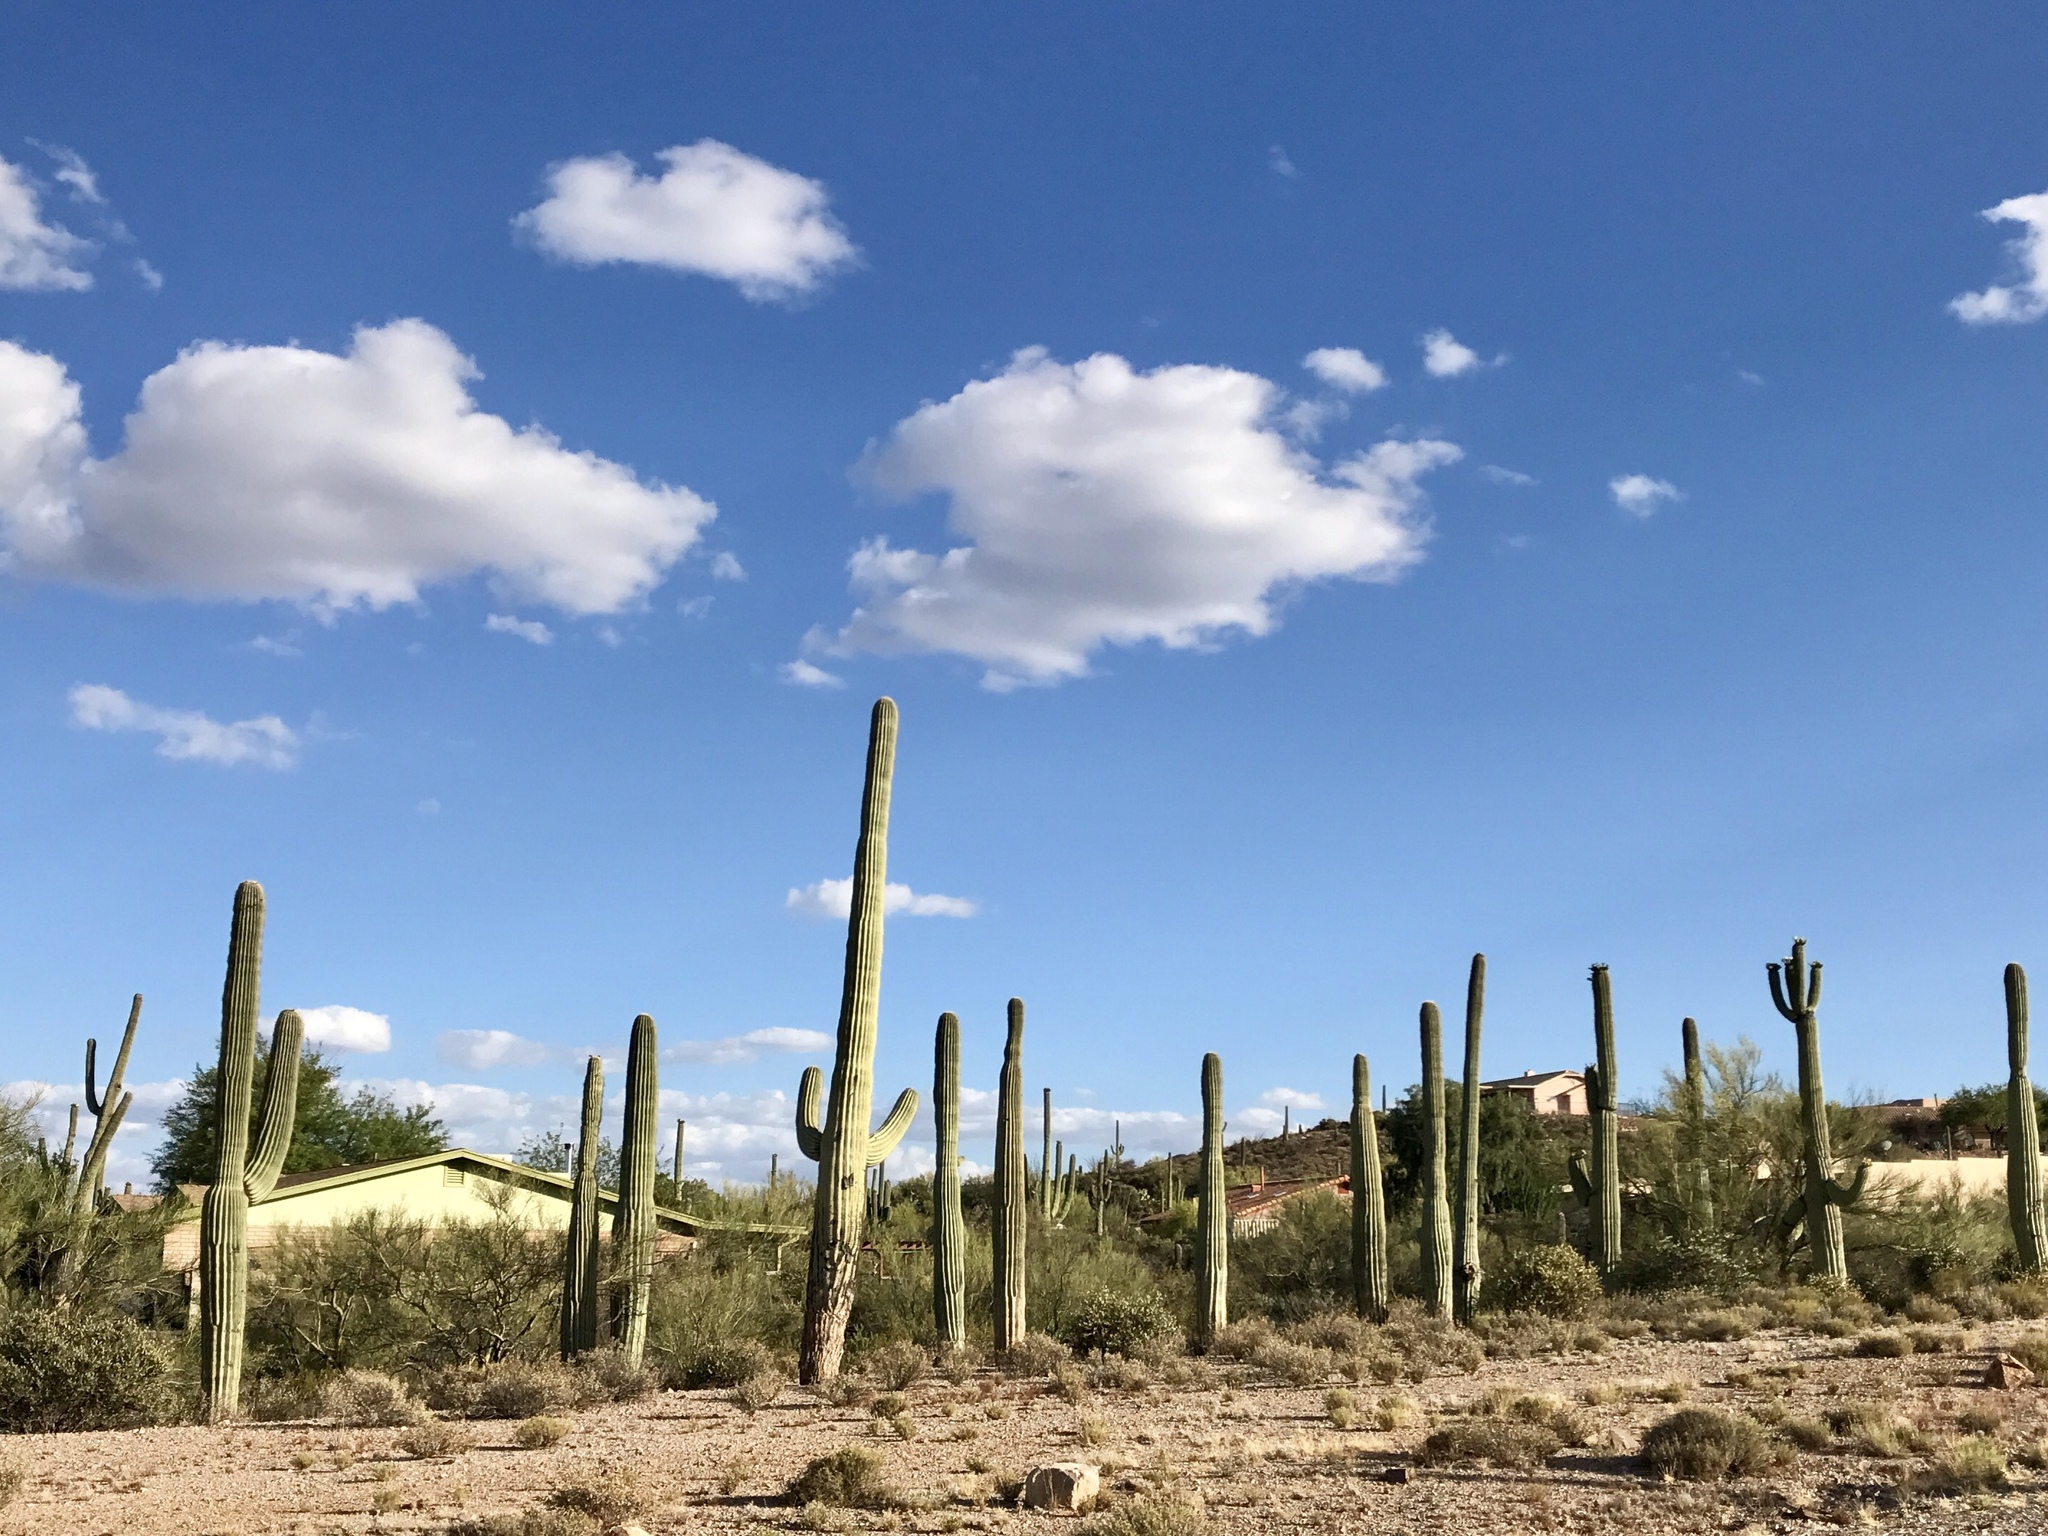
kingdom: Plantae
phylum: Tracheophyta
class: Magnoliopsida
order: Caryophyllales
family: Cactaceae
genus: Carnegiea
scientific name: Carnegiea gigantea
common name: Saguaro
